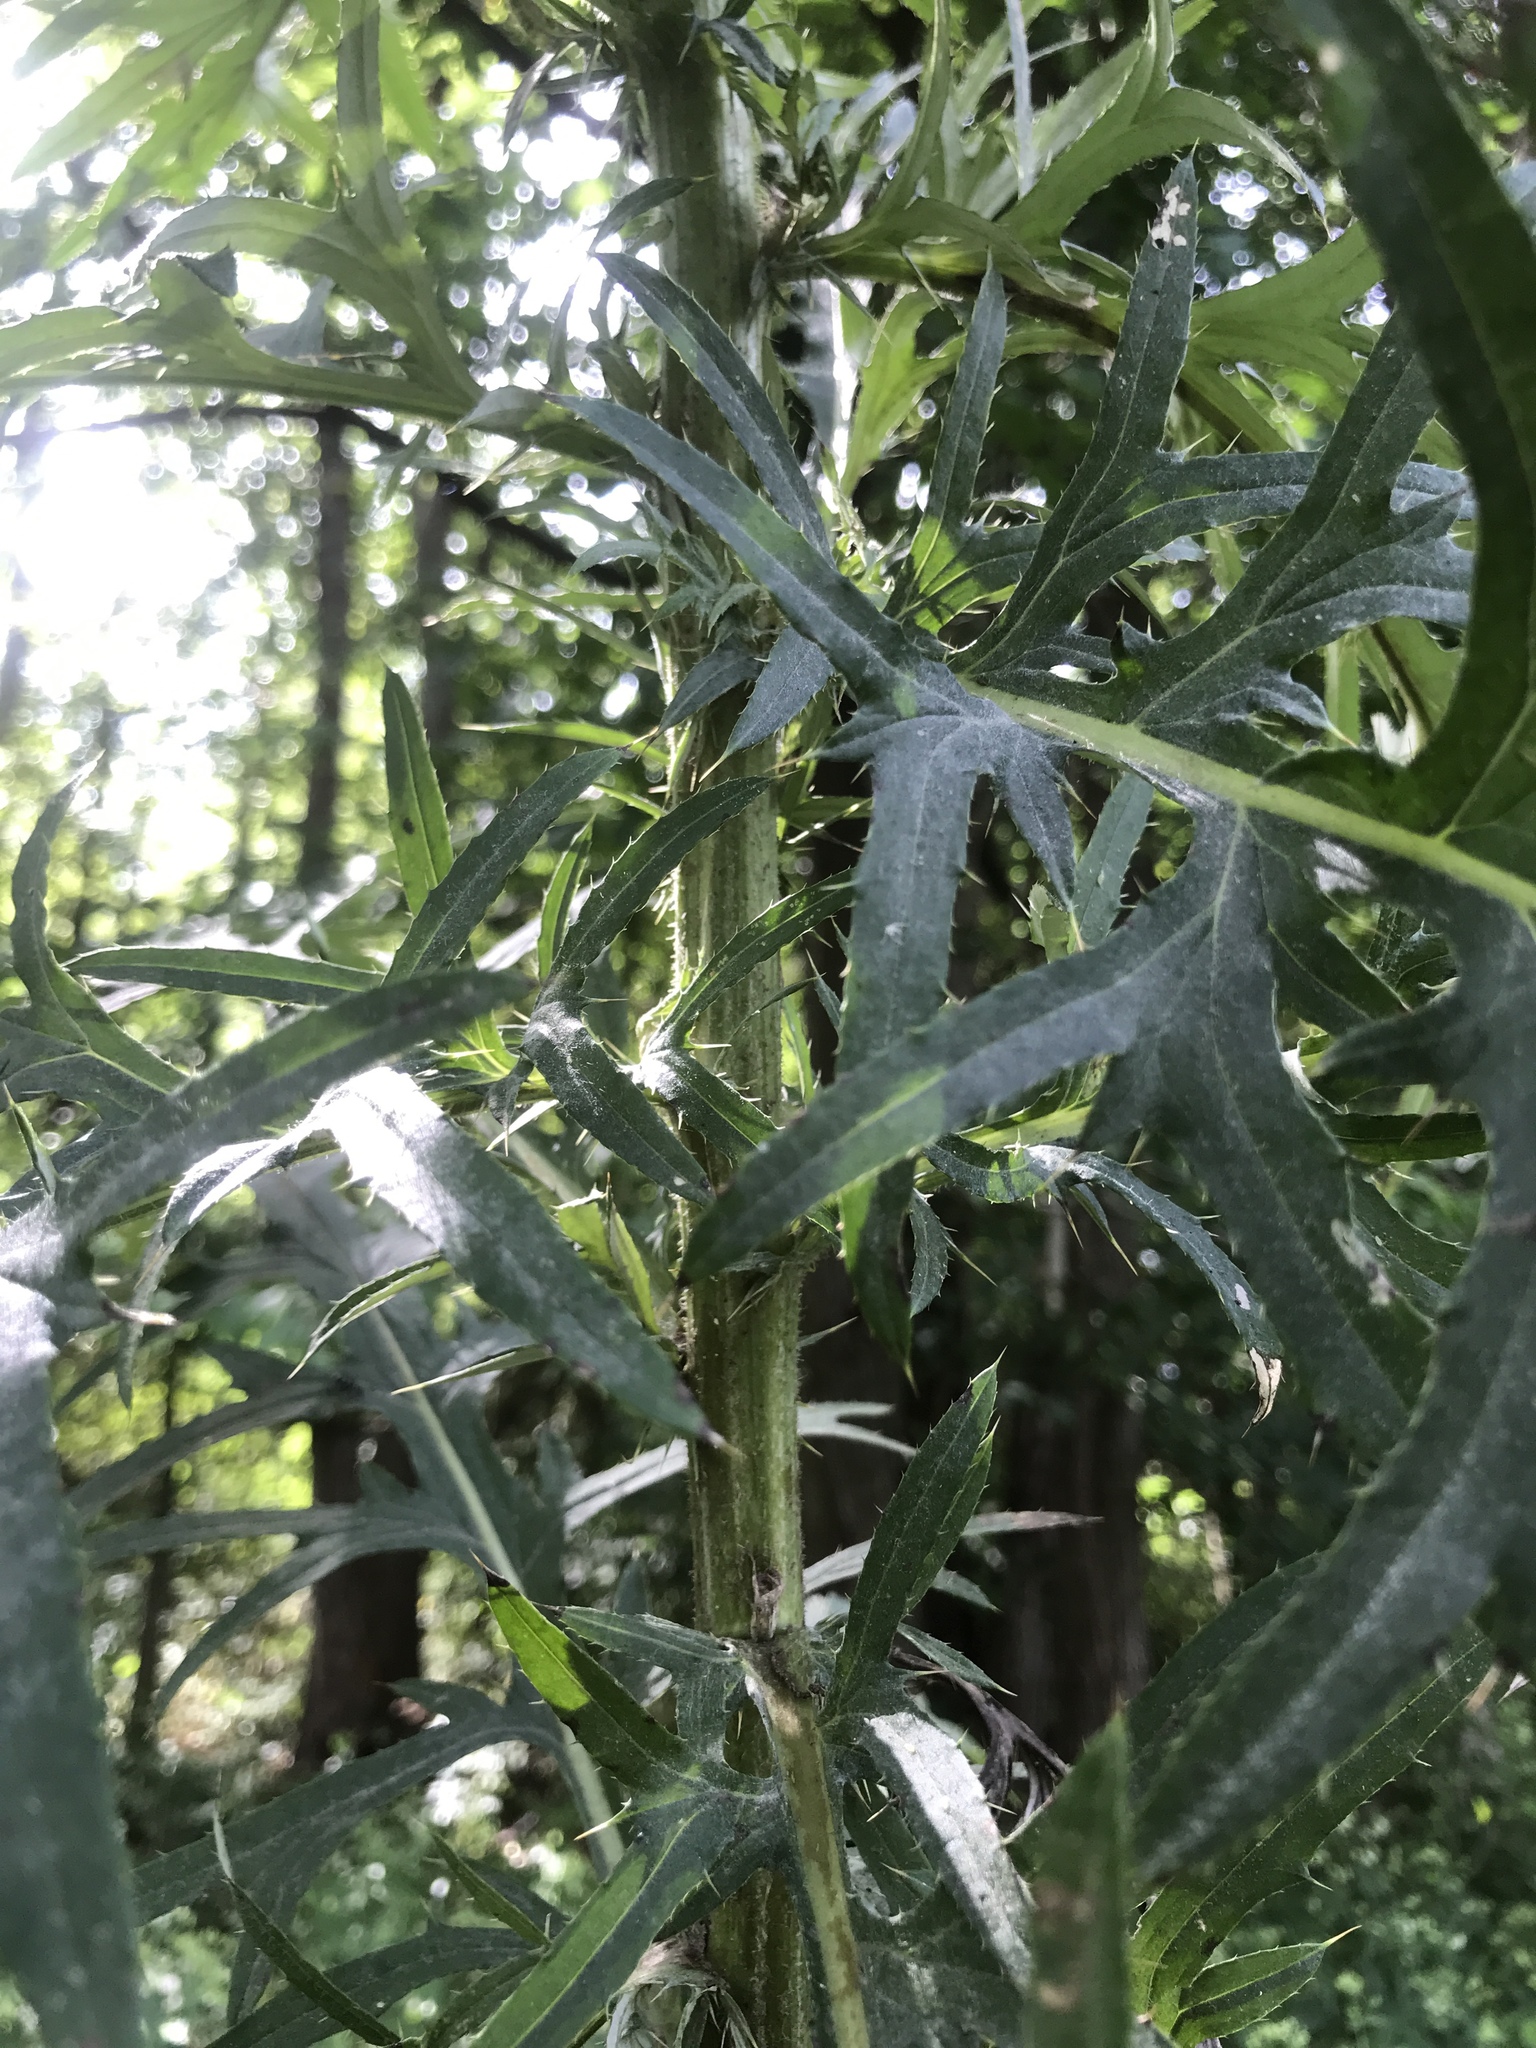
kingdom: Plantae
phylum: Tracheophyta
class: Magnoliopsida
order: Asterales
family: Asteraceae
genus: Cirsium
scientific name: Cirsium discolor
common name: Field thistle
